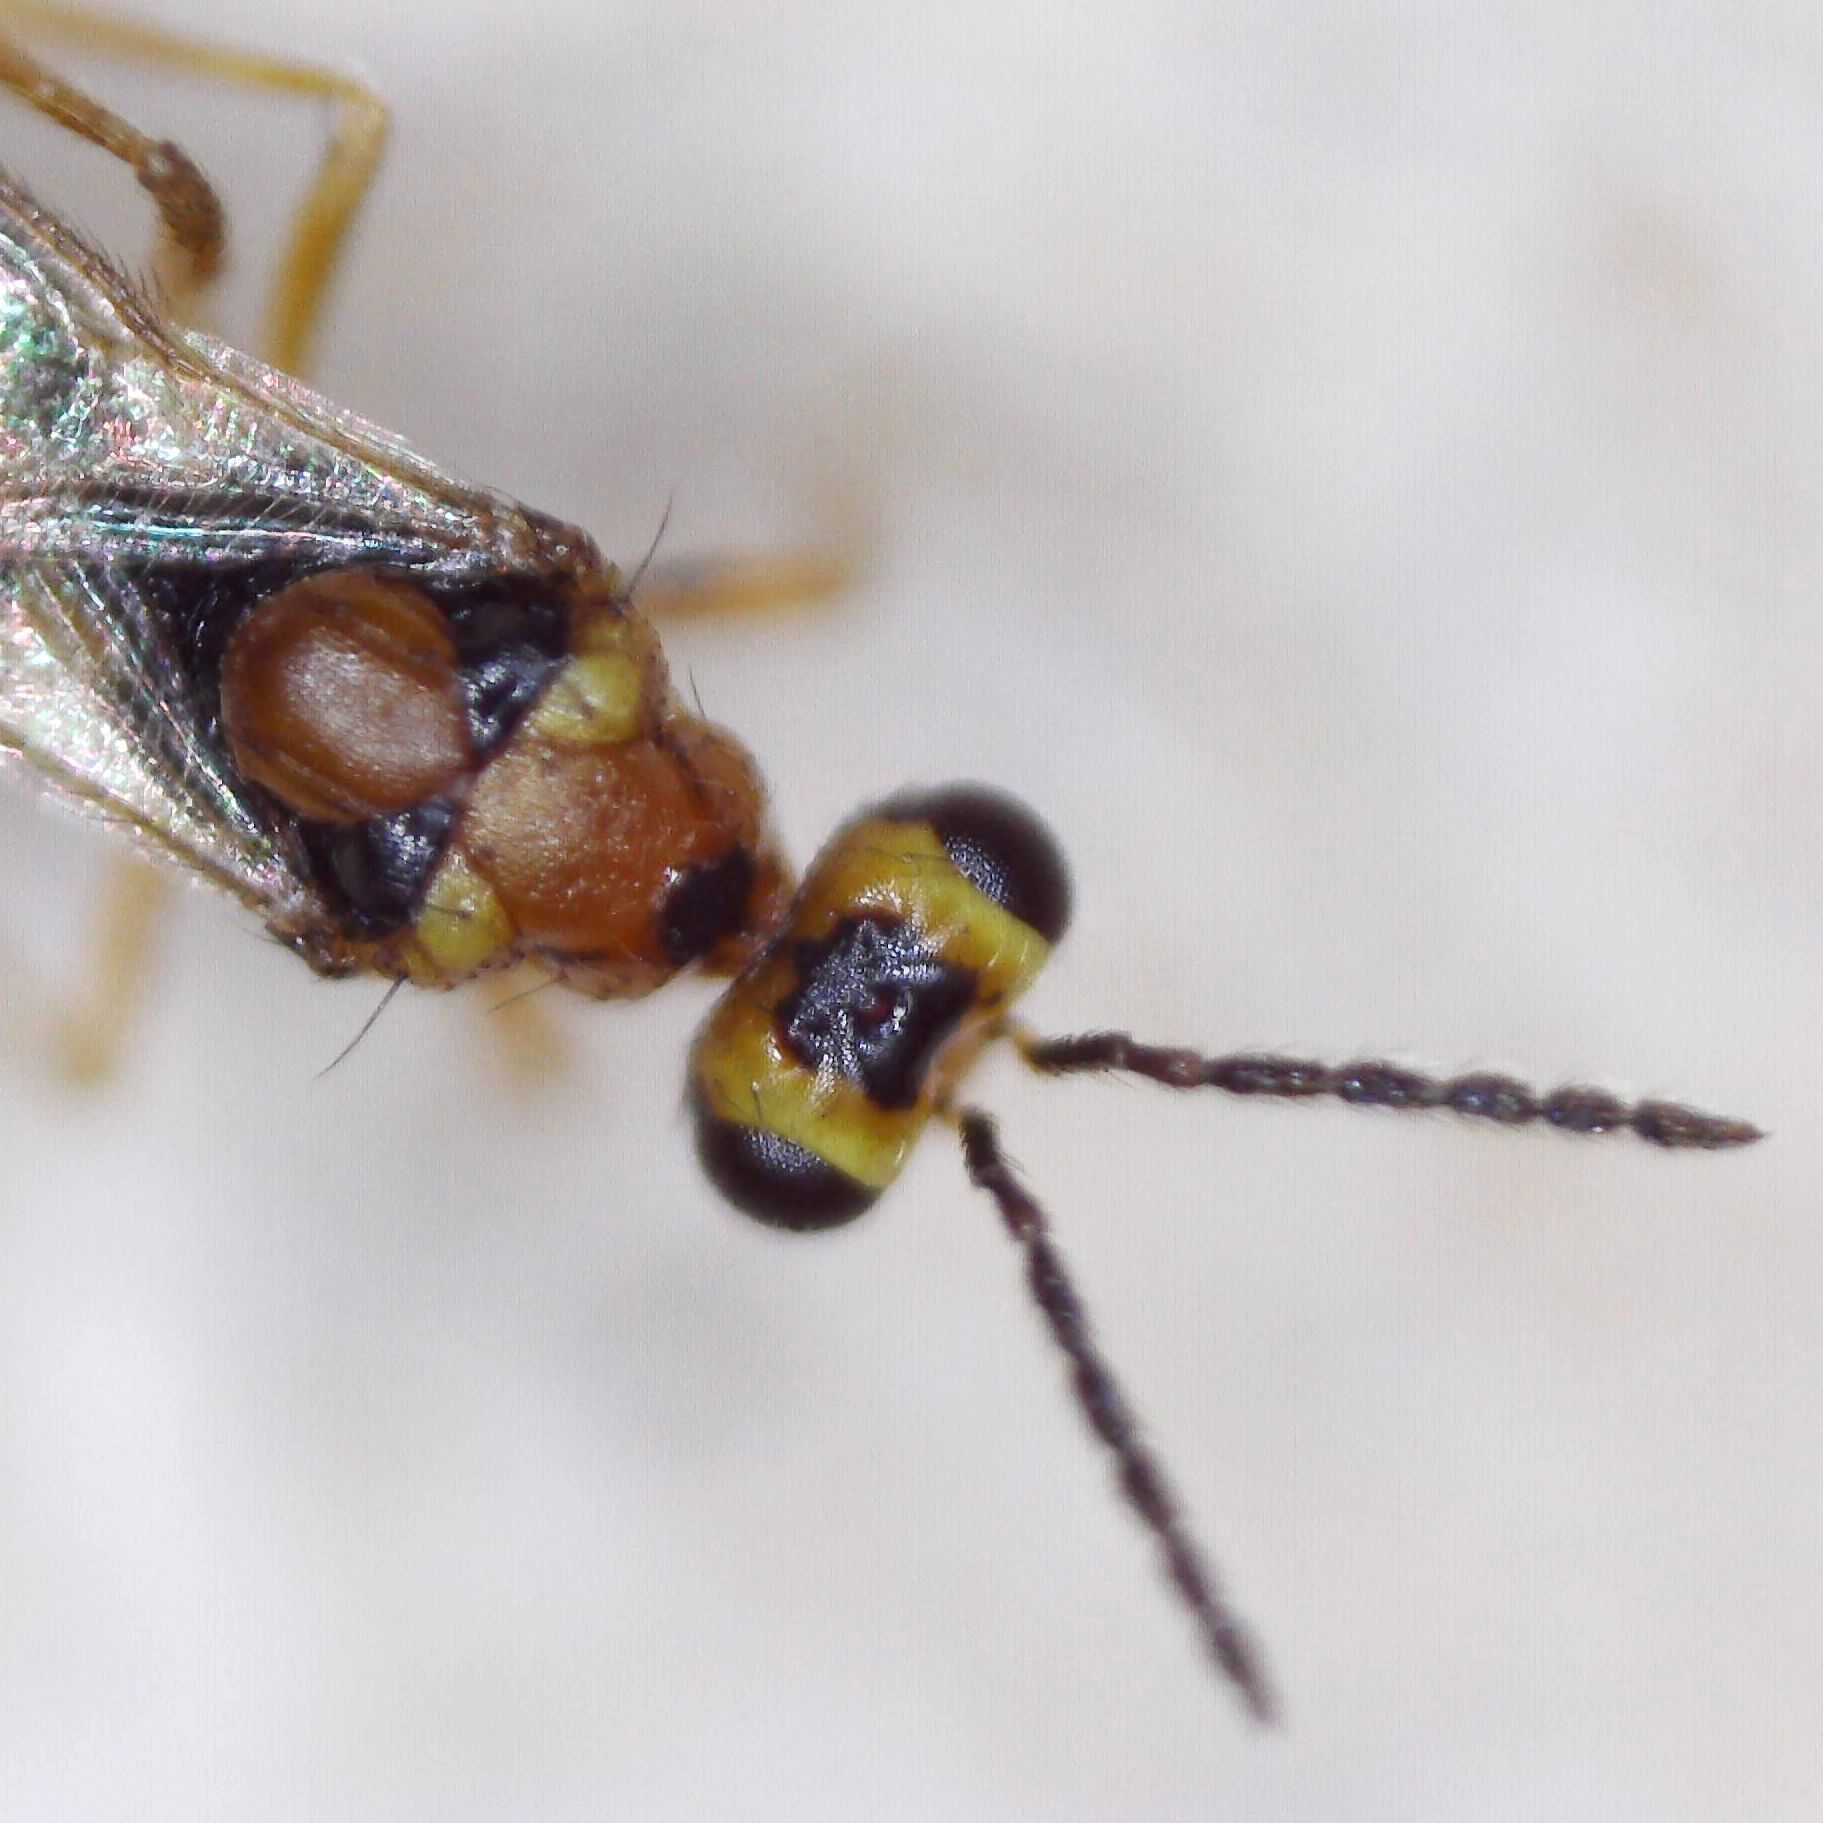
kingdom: Animalia
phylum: Arthropoda
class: Insecta
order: Hymenoptera
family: Eulophidae
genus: Stenomesius
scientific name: Stenomesius rufescens
